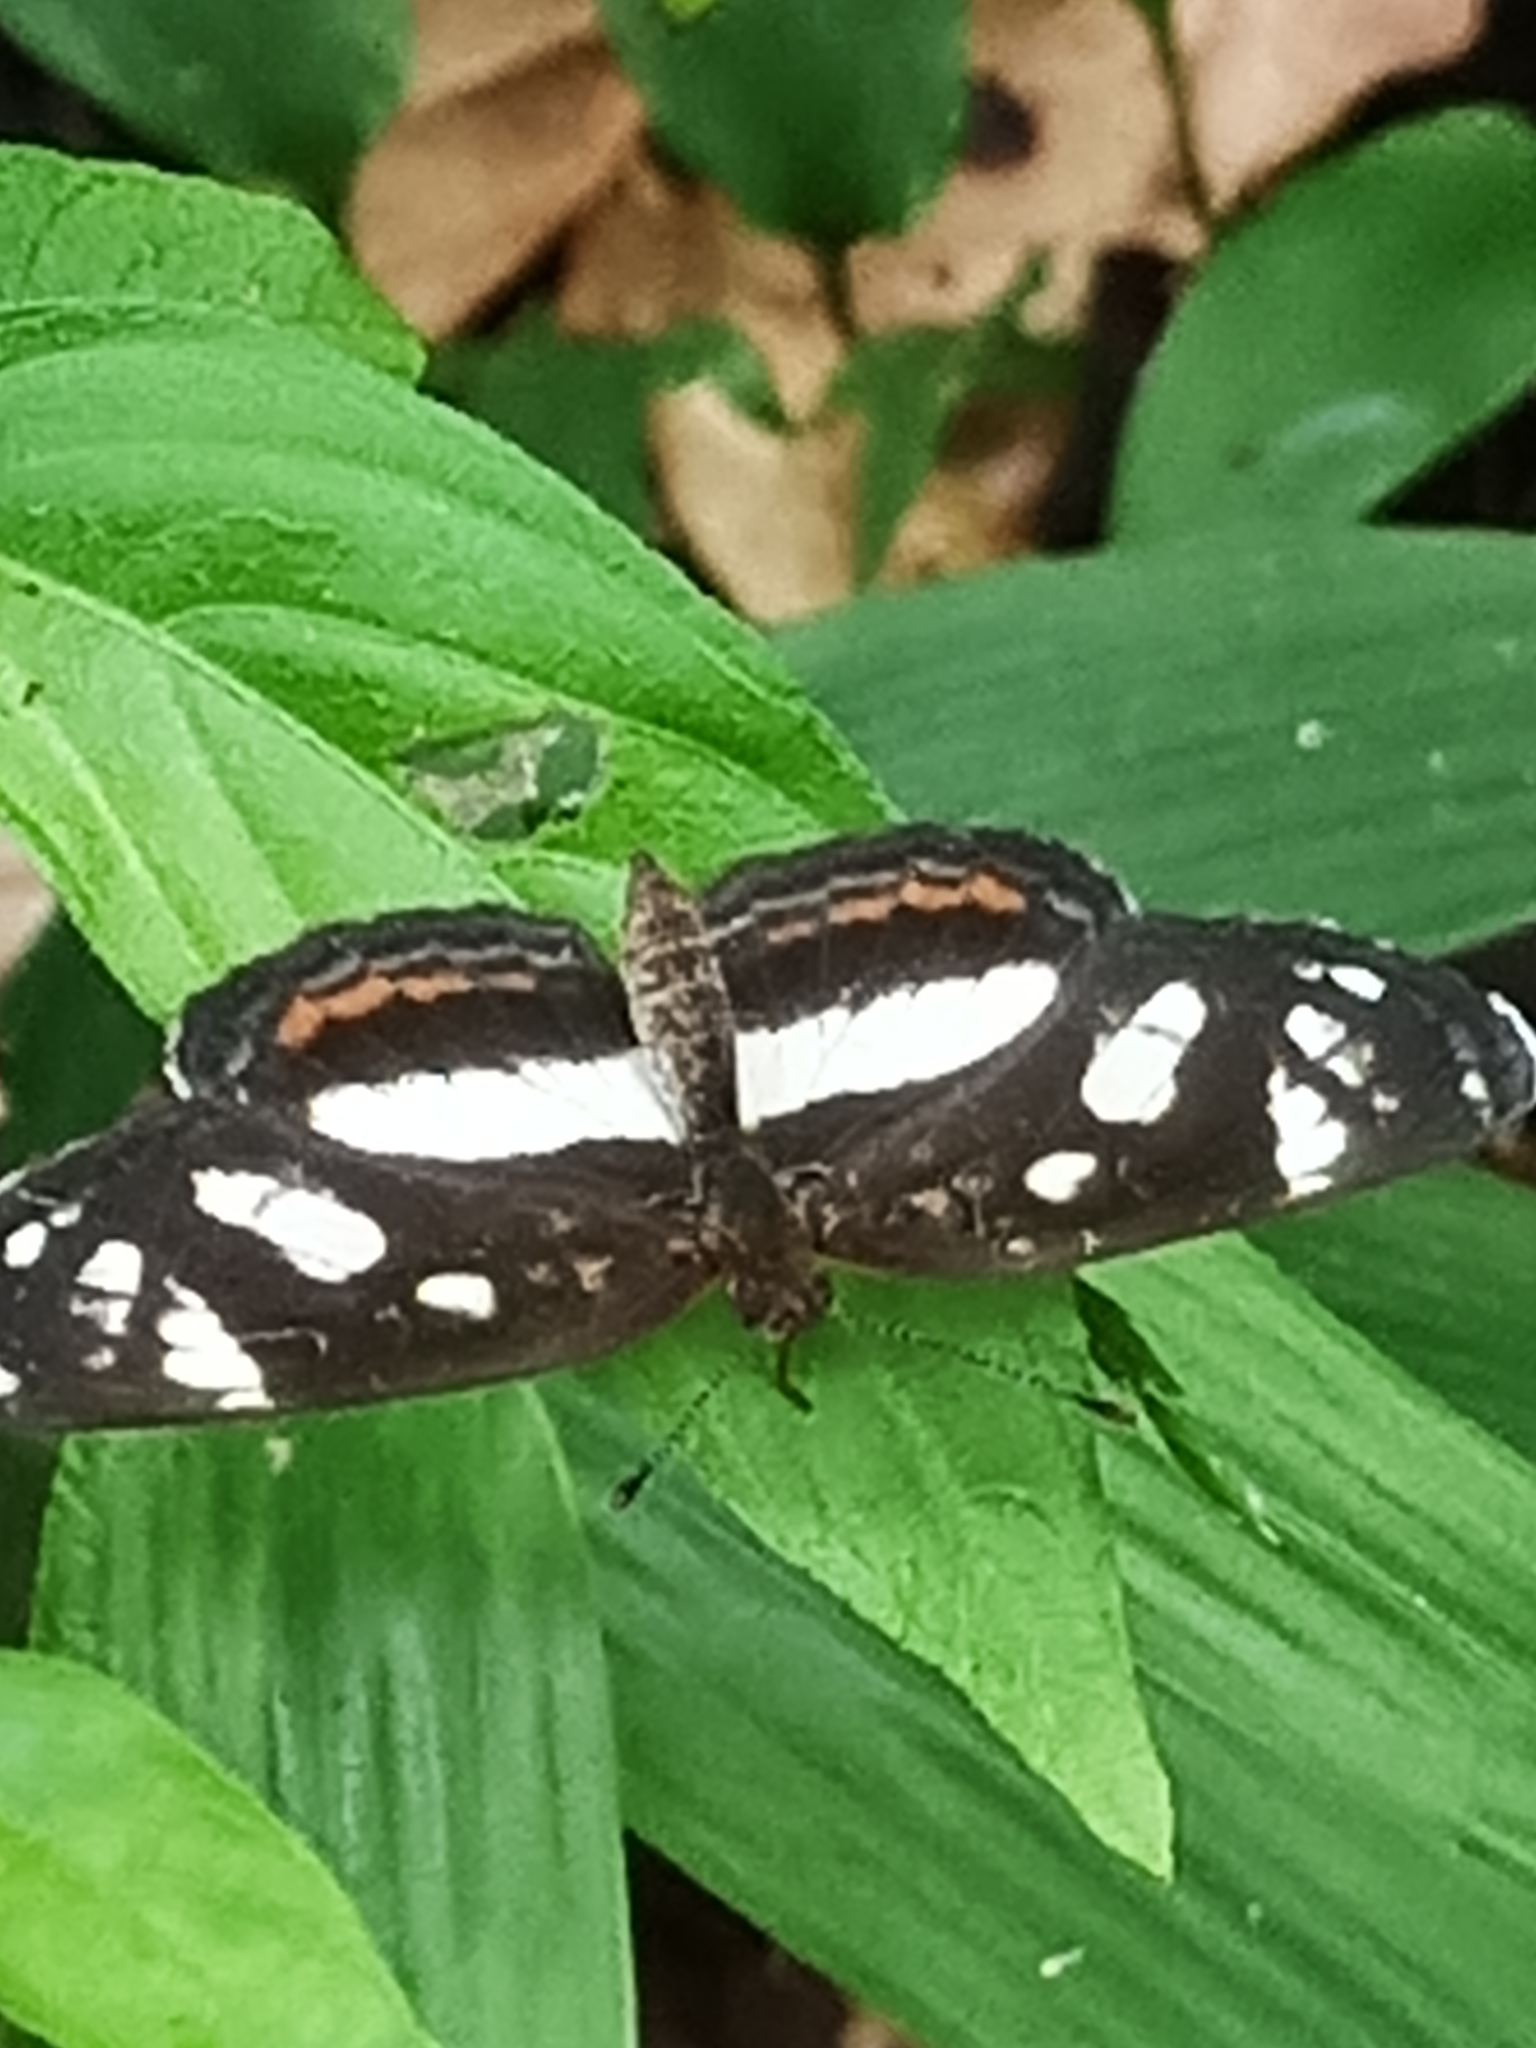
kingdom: Animalia
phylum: Arthropoda
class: Insecta
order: Lepidoptera
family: Nymphalidae
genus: Eresia
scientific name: Eresia nauplius
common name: Nauplius crescent
